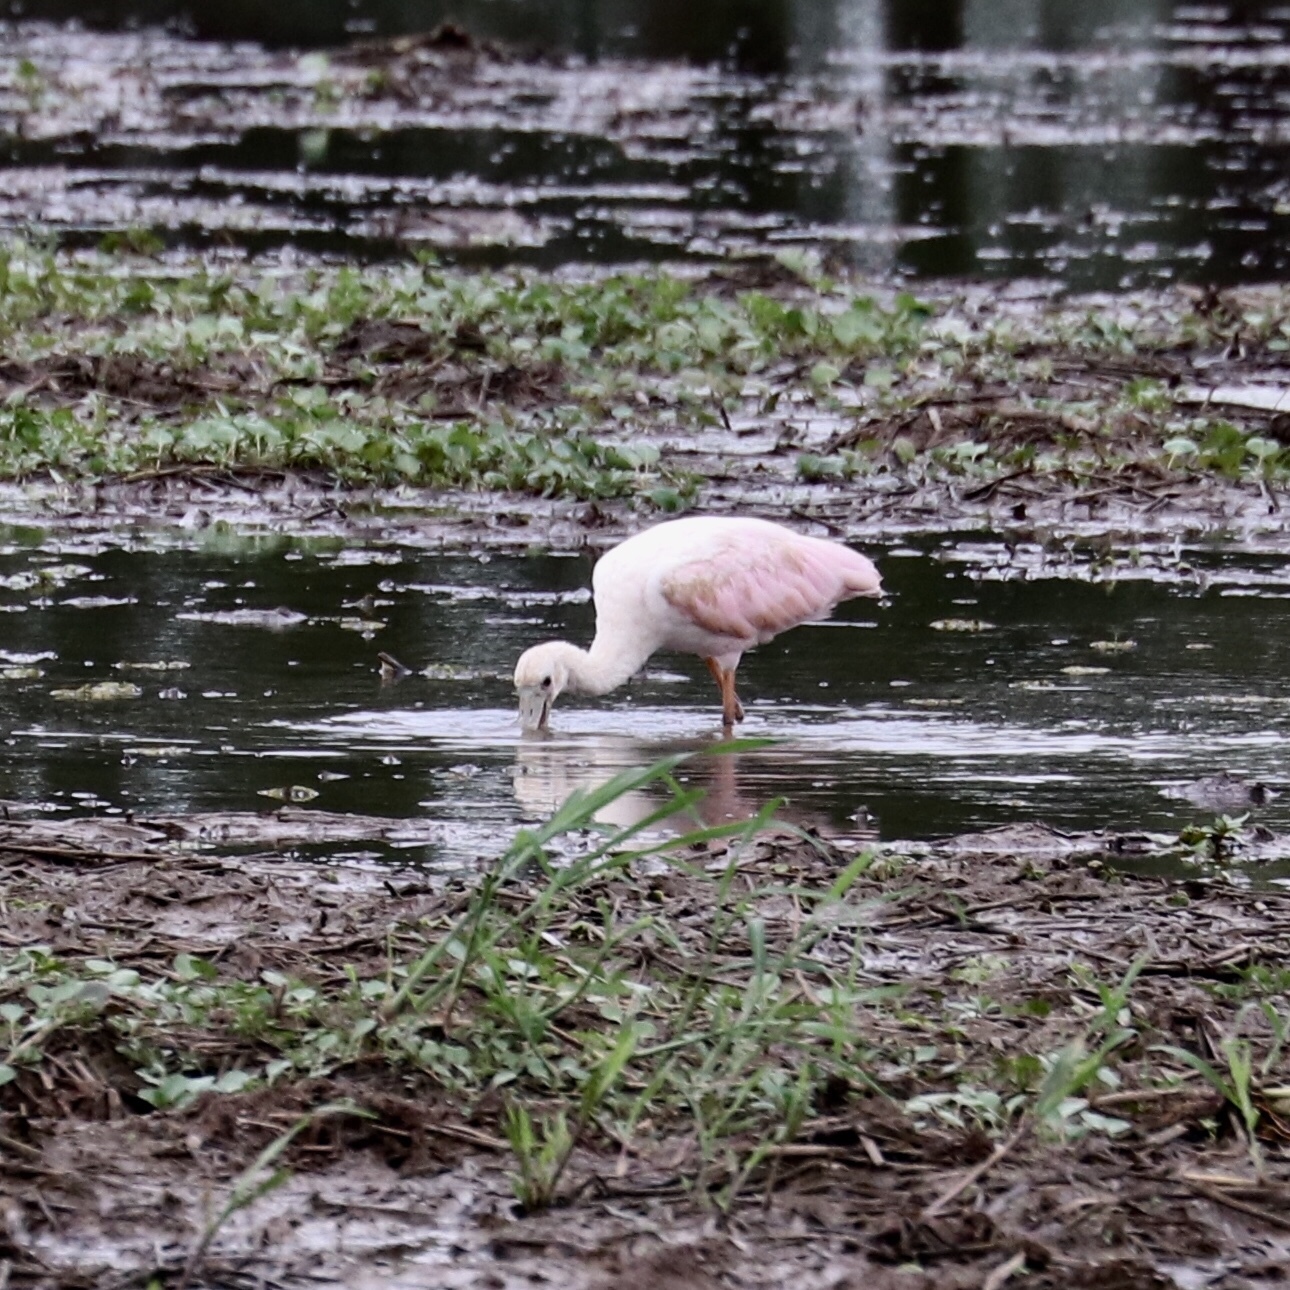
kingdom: Animalia
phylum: Chordata
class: Aves
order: Pelecaniformes
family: Threskiornithidae
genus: Platalea
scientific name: Platalea ajaja
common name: Roseate spoonbill
